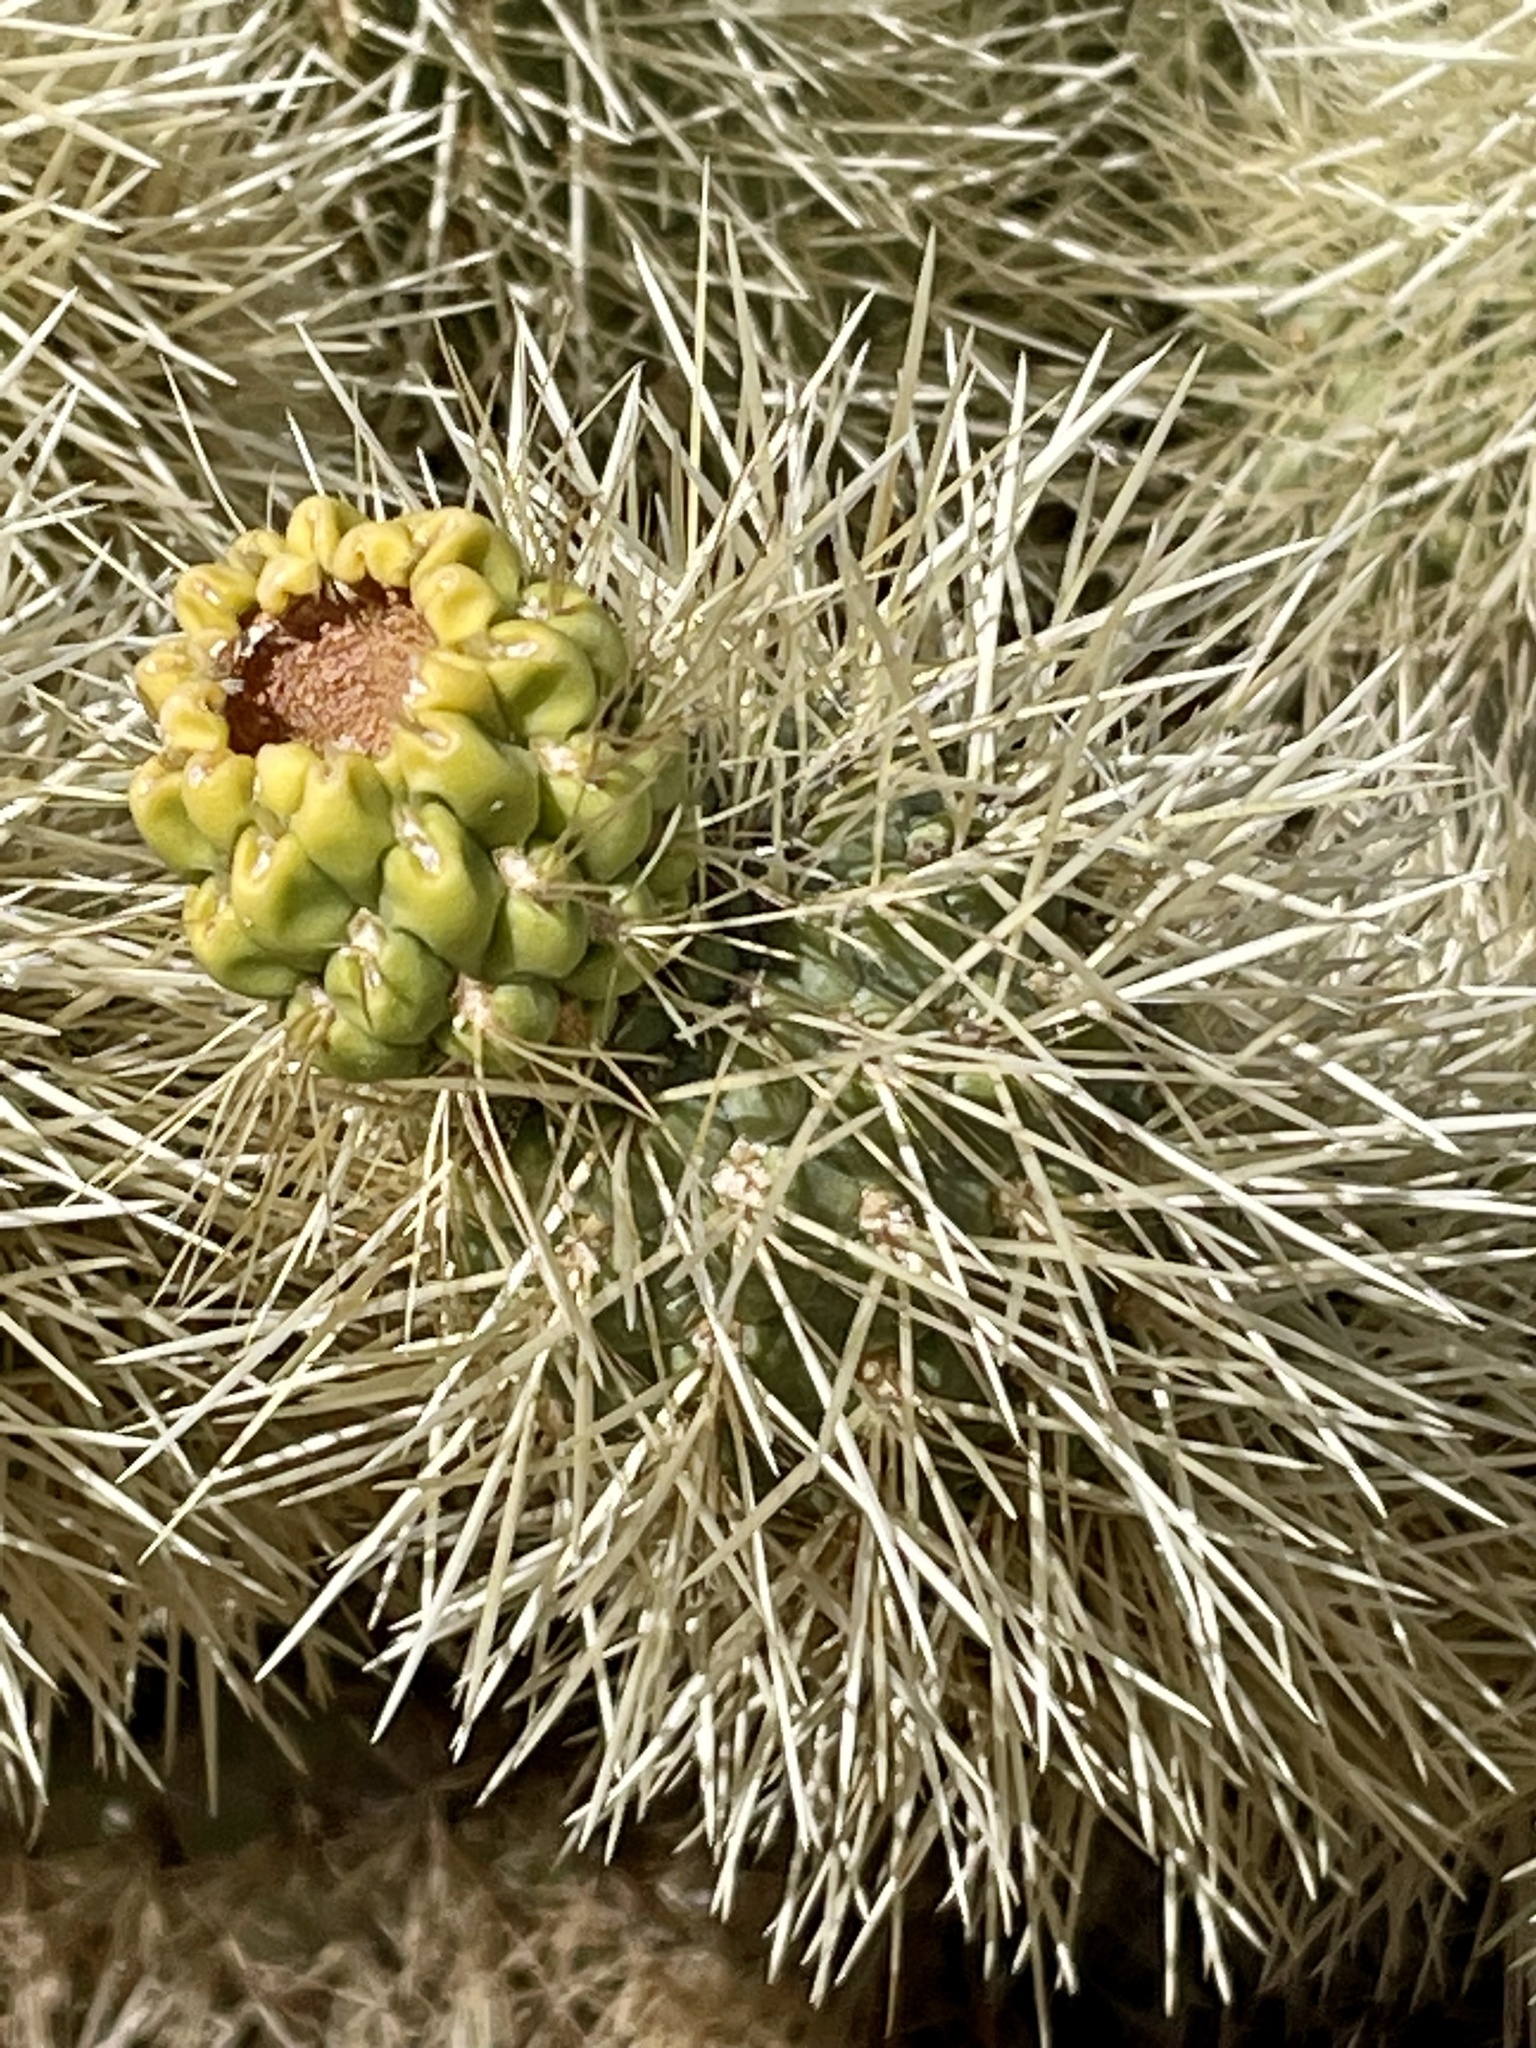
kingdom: Plantae
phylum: Tracheophyta
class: Magnoliopsida
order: Caryophyllales
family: Cactaceae
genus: Cylindropuntia
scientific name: Cylindropuntia fosbergii
